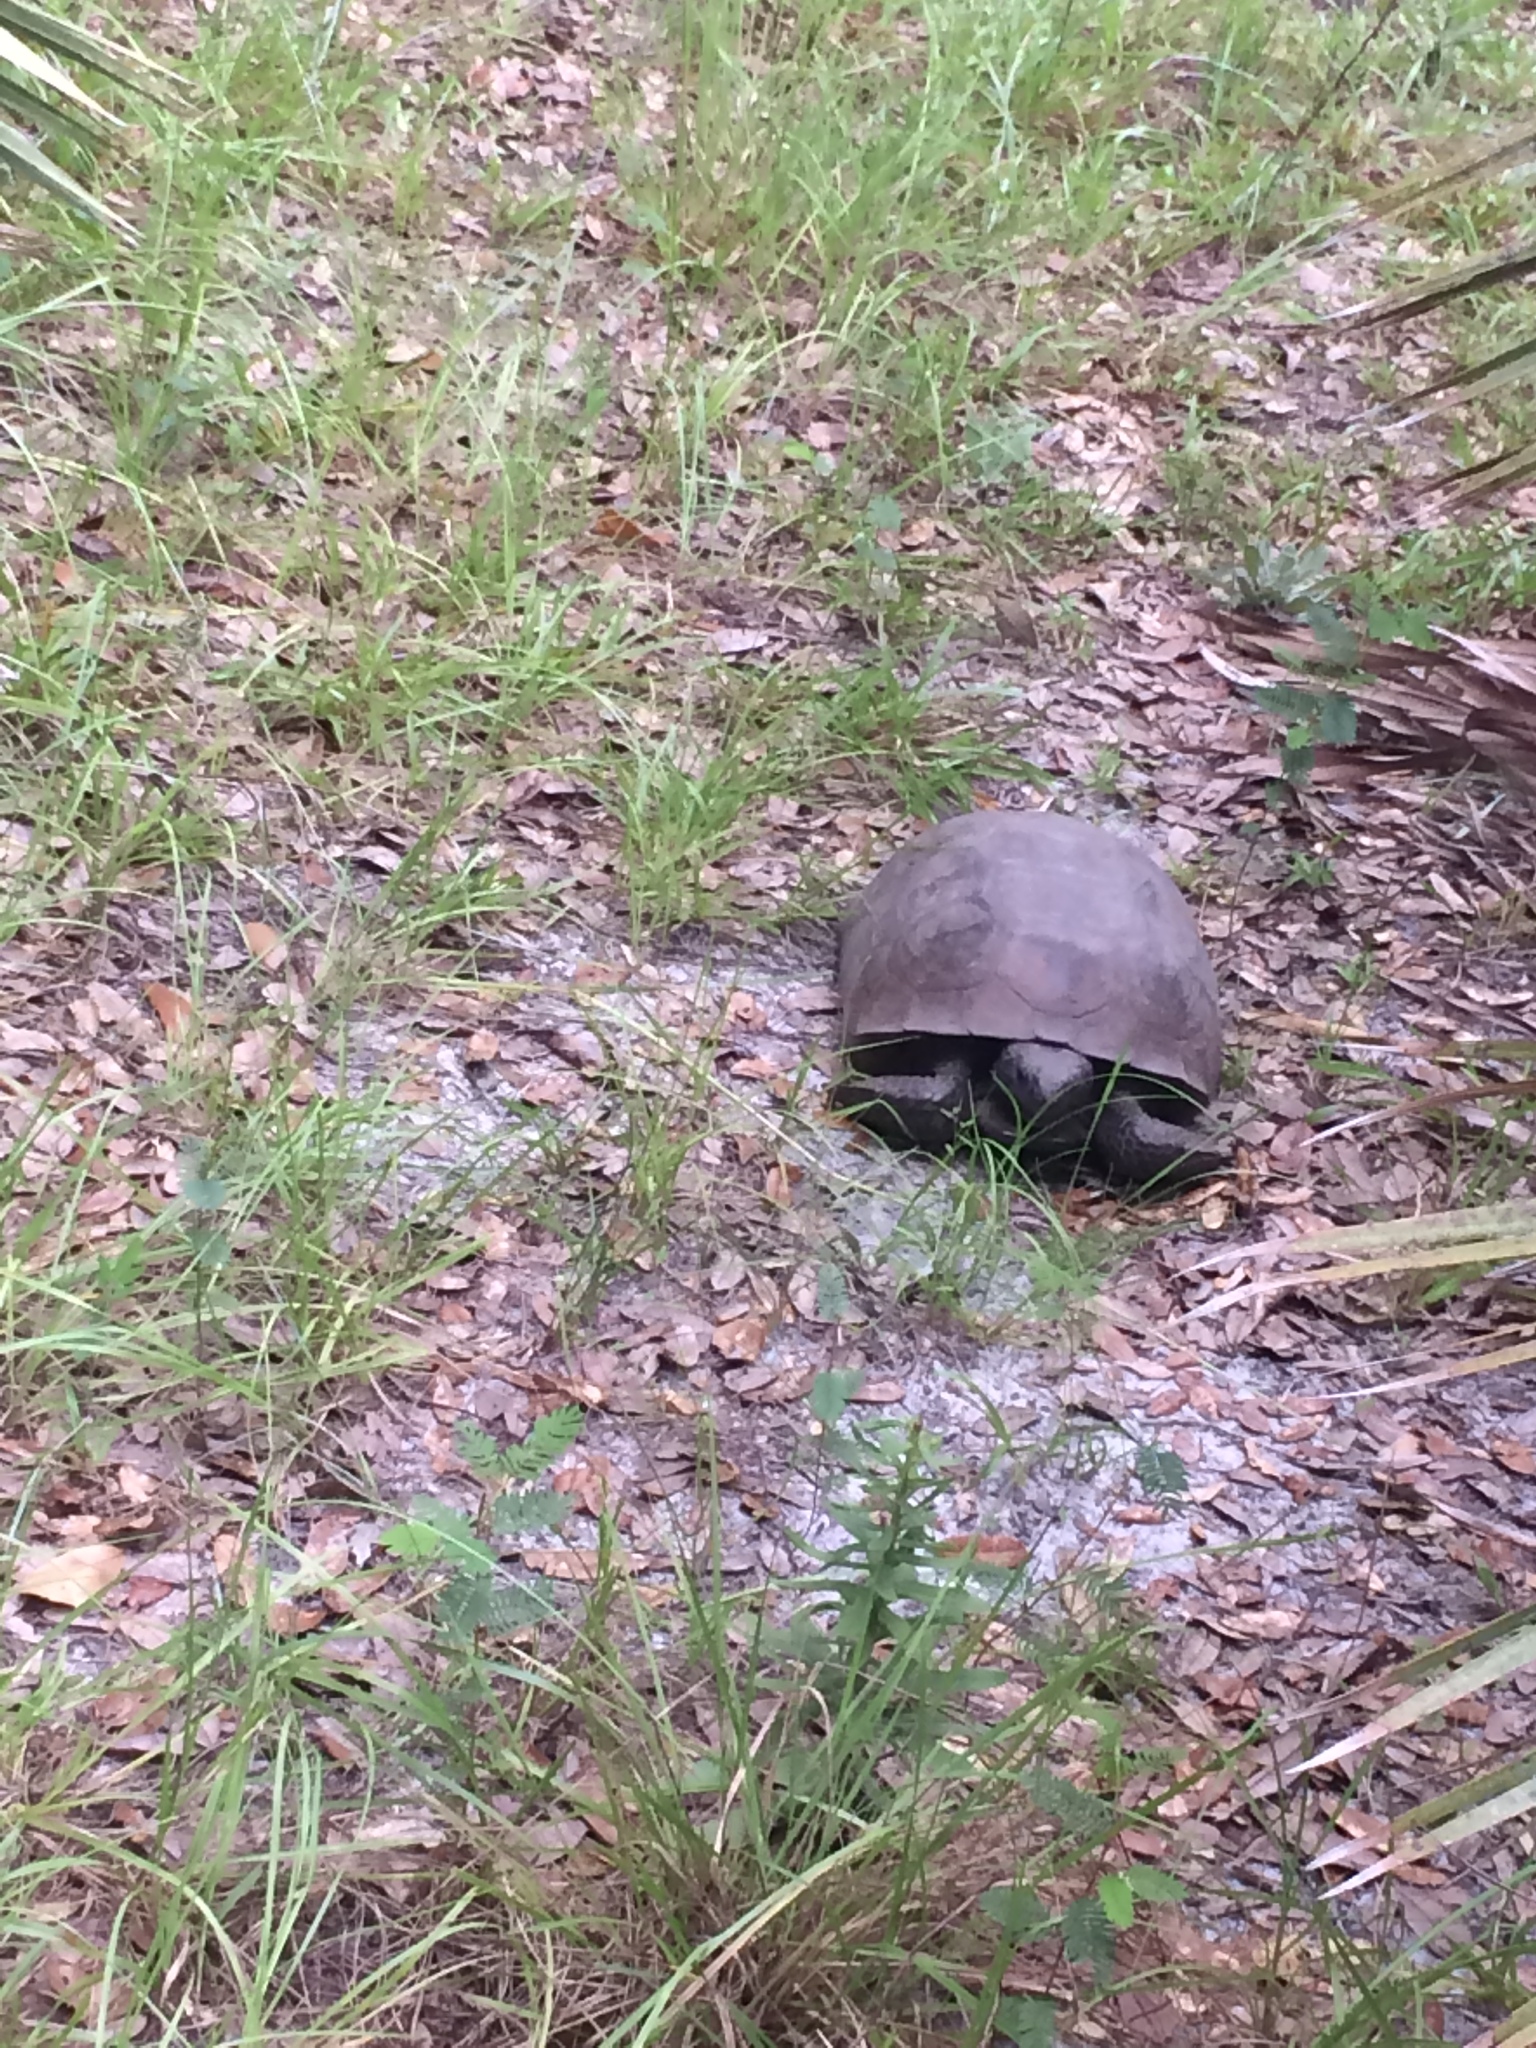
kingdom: Animalia
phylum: Chordata
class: Testudines
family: Testudinidae
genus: Gopherus
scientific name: Gopherus polyphemus
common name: Florida gopher tortoise
